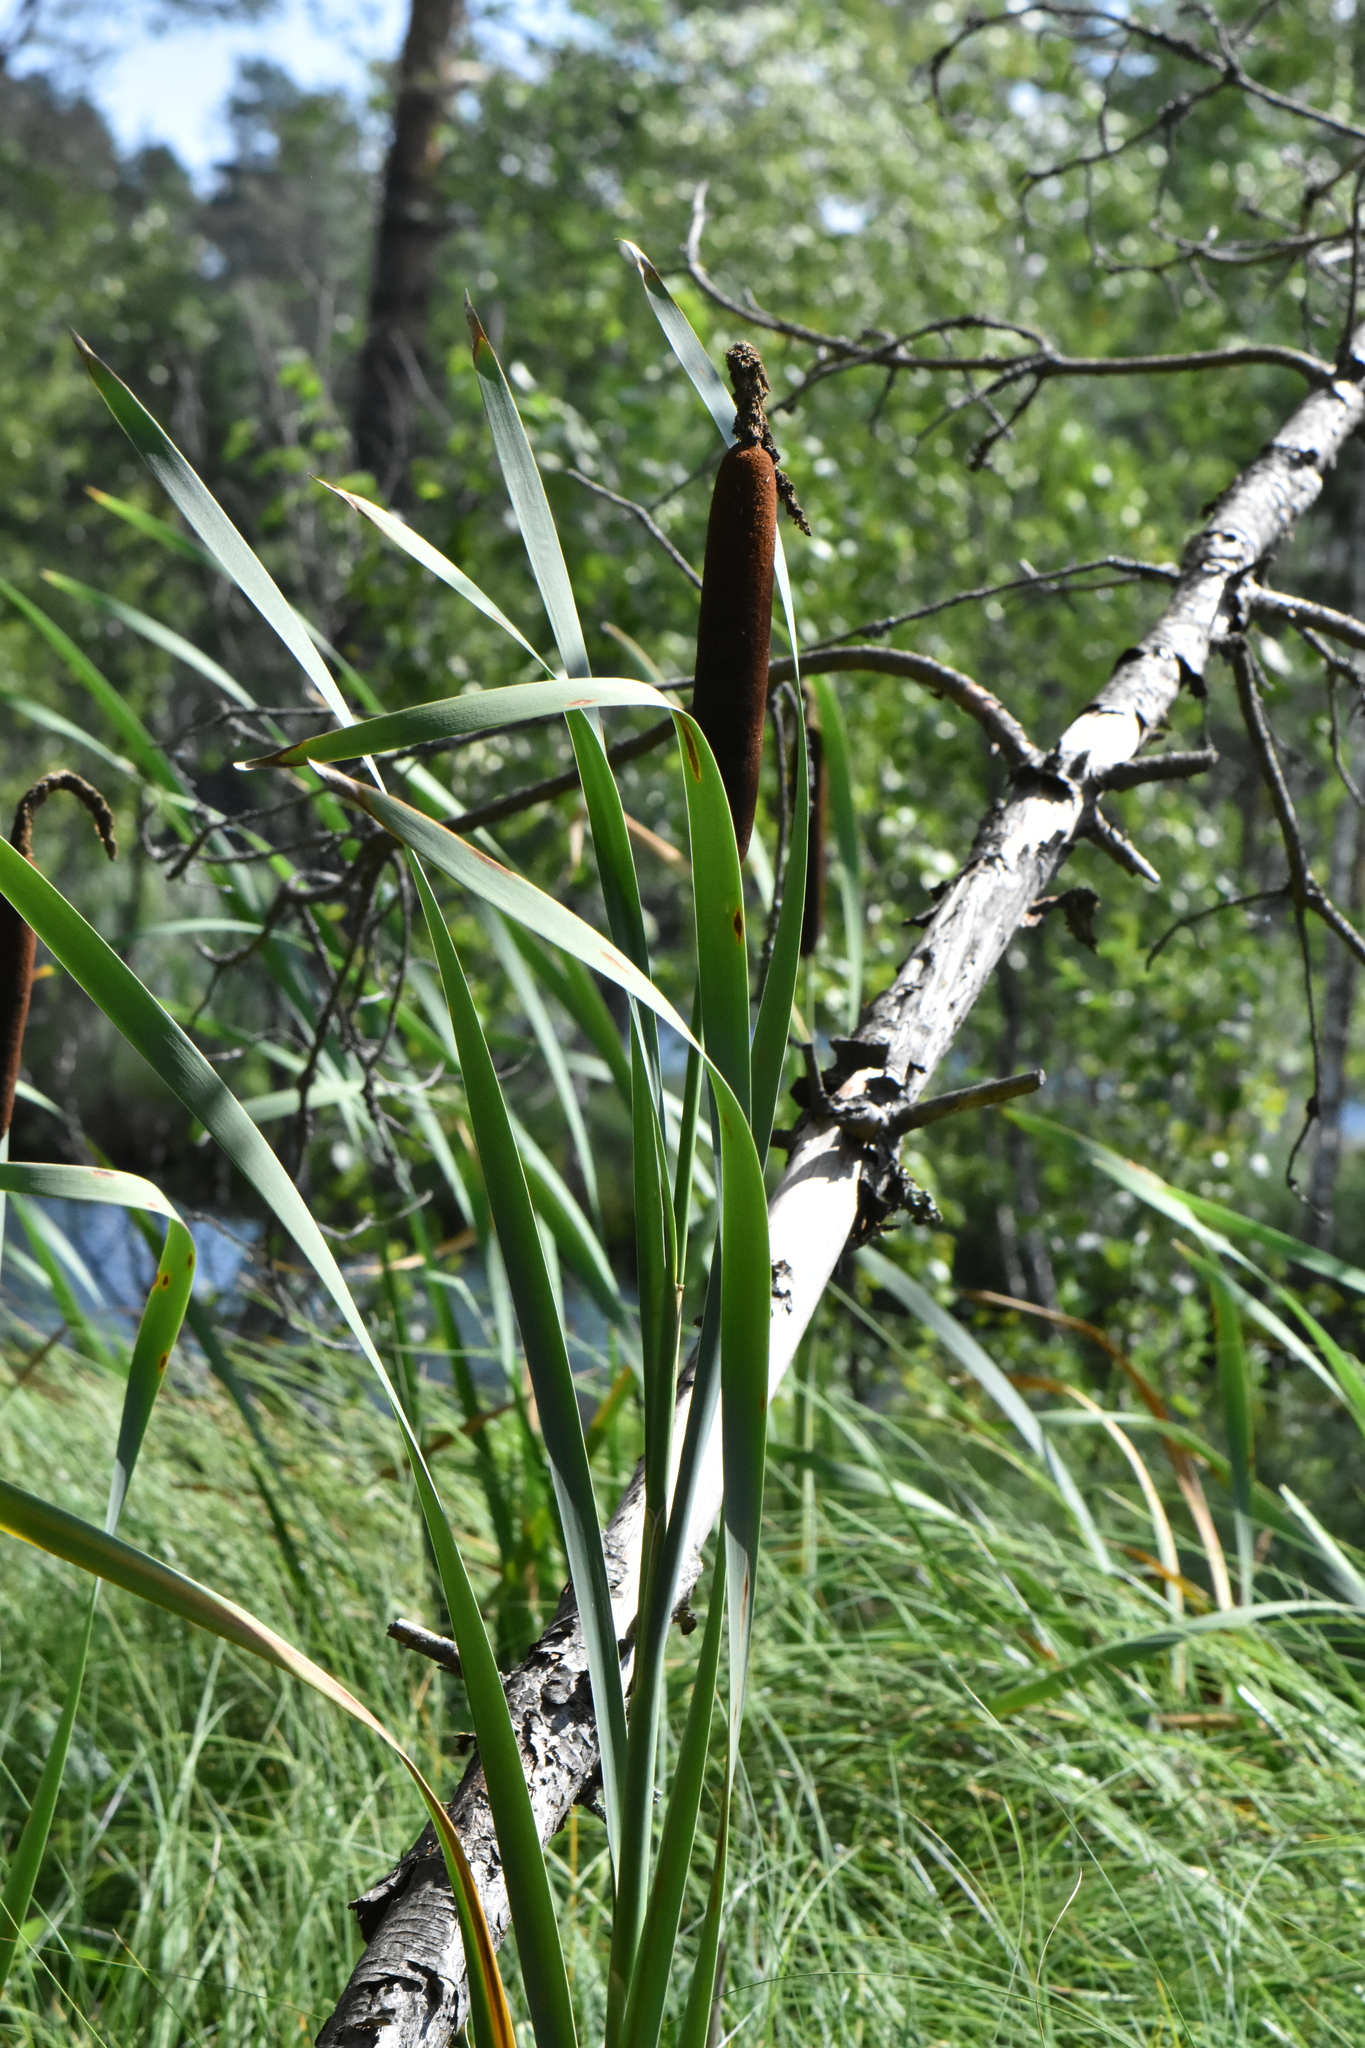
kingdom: Plantae
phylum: Tracheophyta
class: Liliopsida
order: Poales
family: Typhaceae
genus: Typha
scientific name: Typha latifolia
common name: Broadleaf cattail
